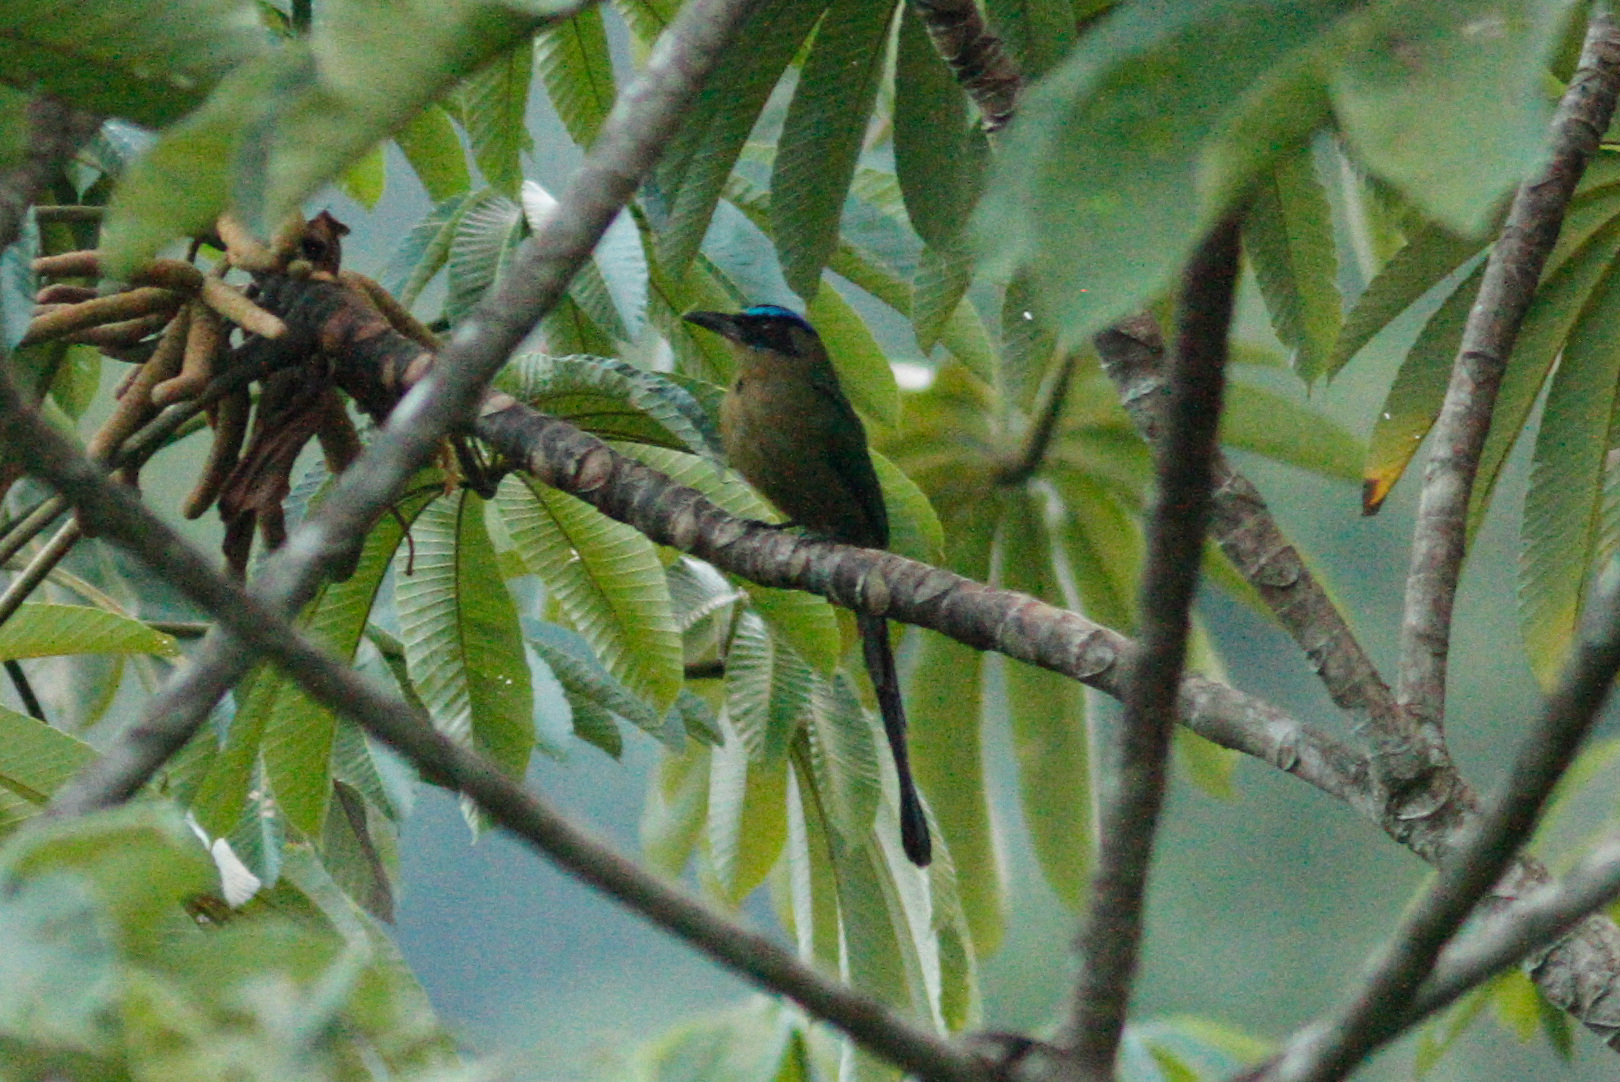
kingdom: Animalia
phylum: Chordata
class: Aves
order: Coraciiformes
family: Momotidae
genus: Momotus
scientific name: Momotus momota
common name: Amazonian motmot
